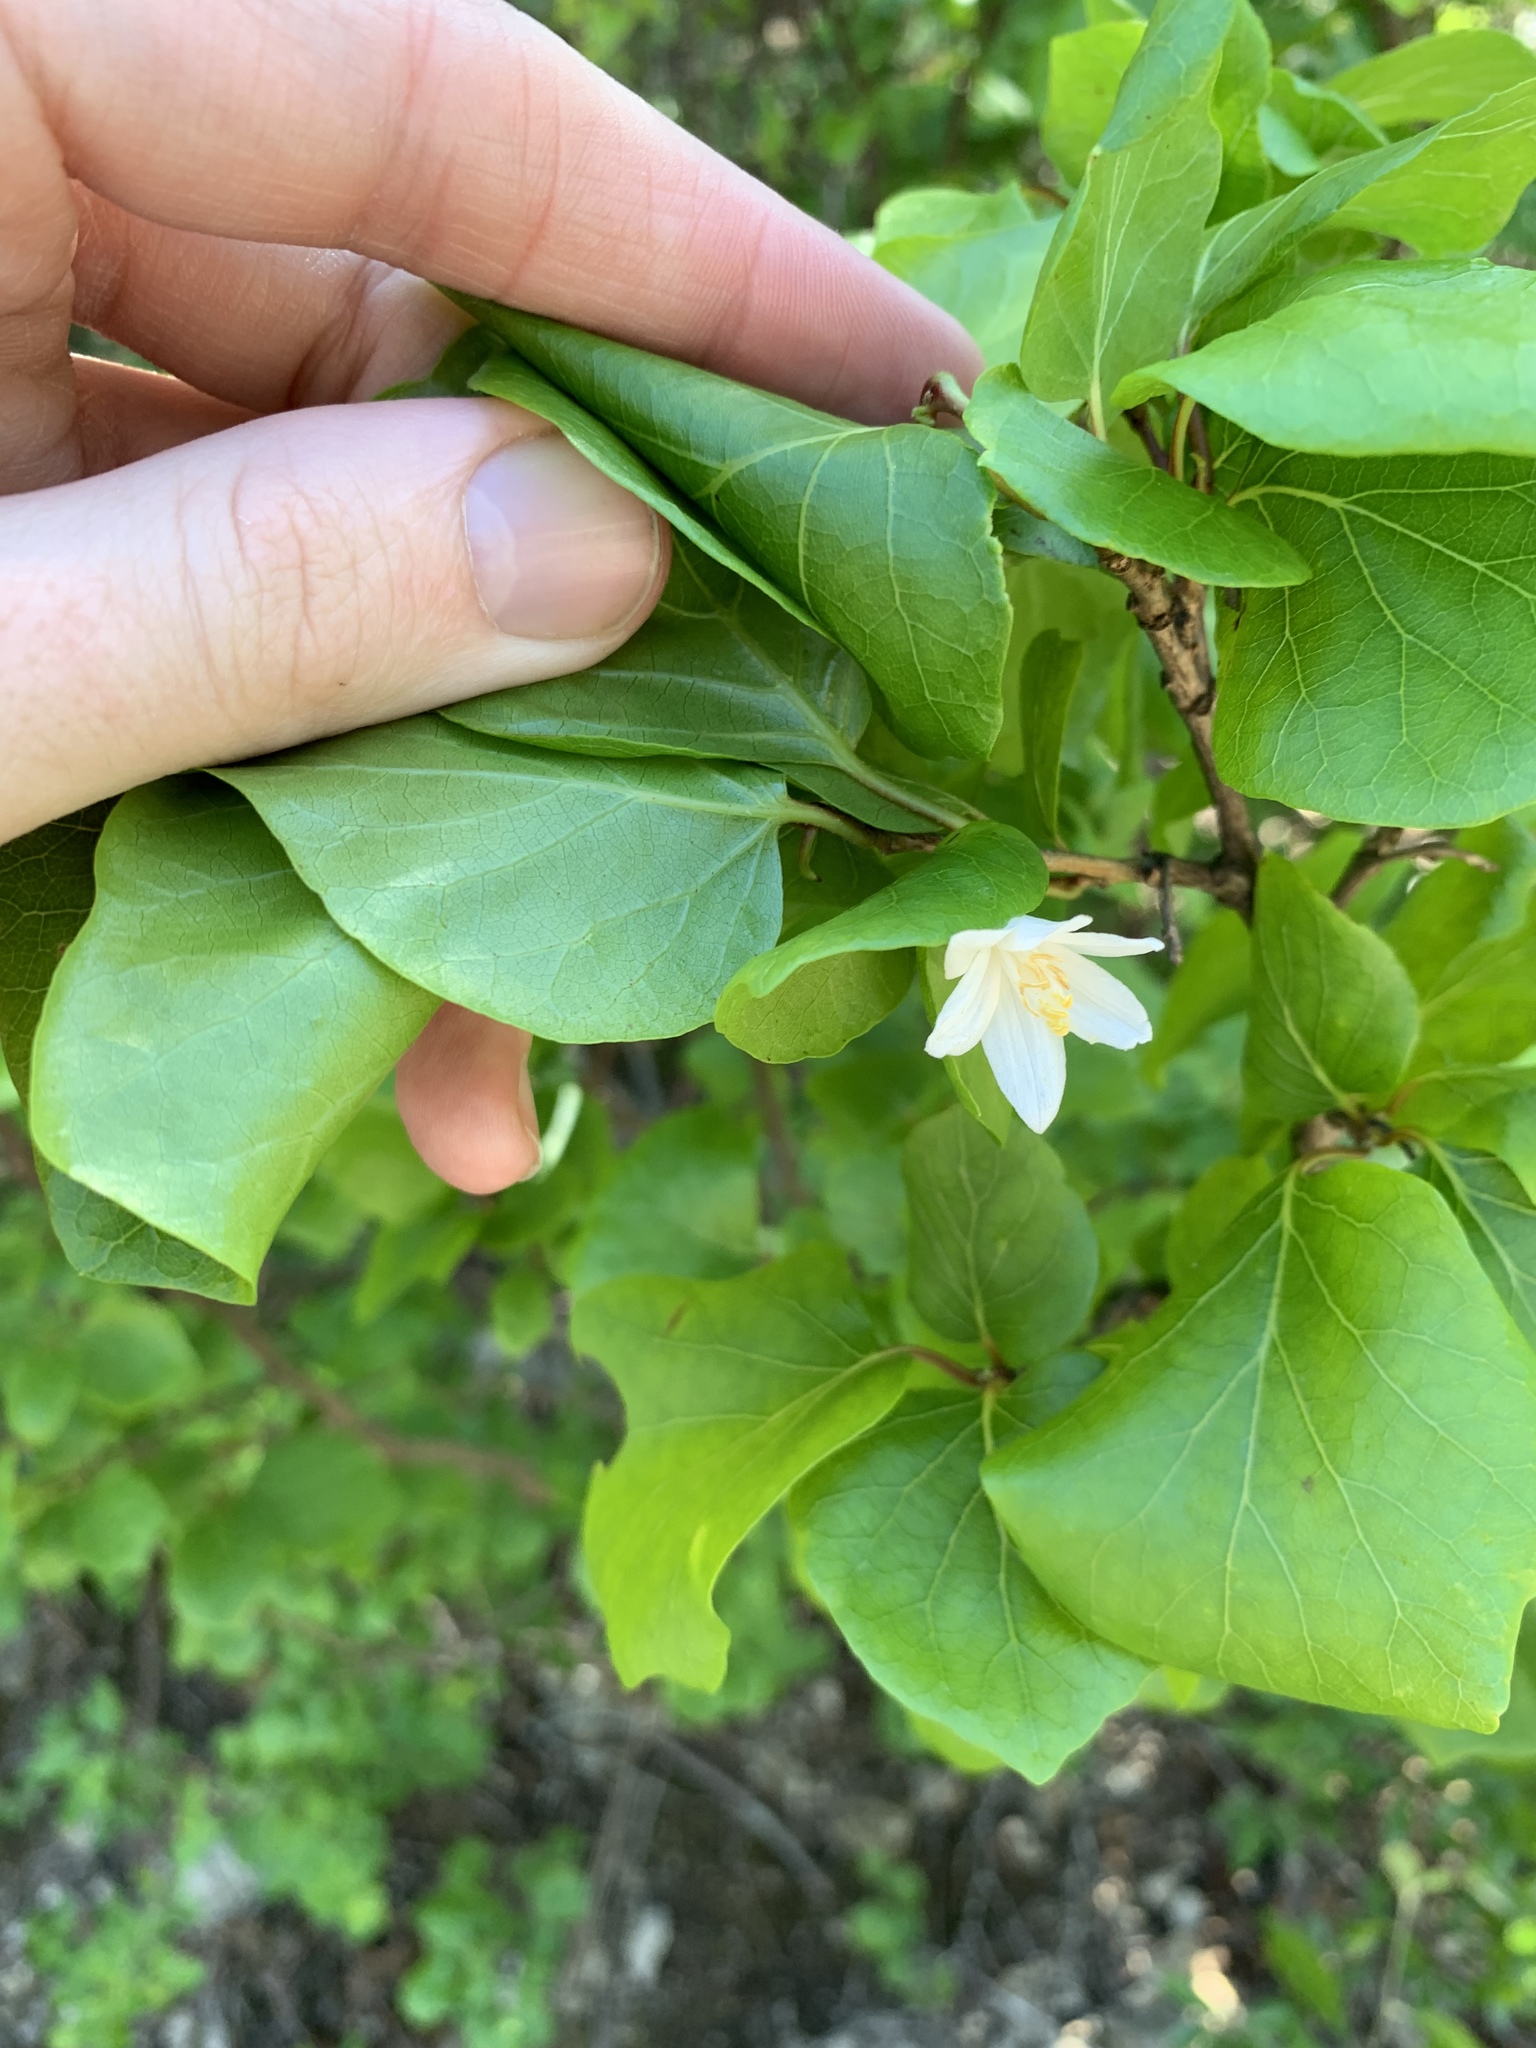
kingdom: Plantae
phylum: Tracheophyta
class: Magnoliopsida
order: Ericales
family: Styracaceae
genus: Styrax
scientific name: Styrax platanifolius
